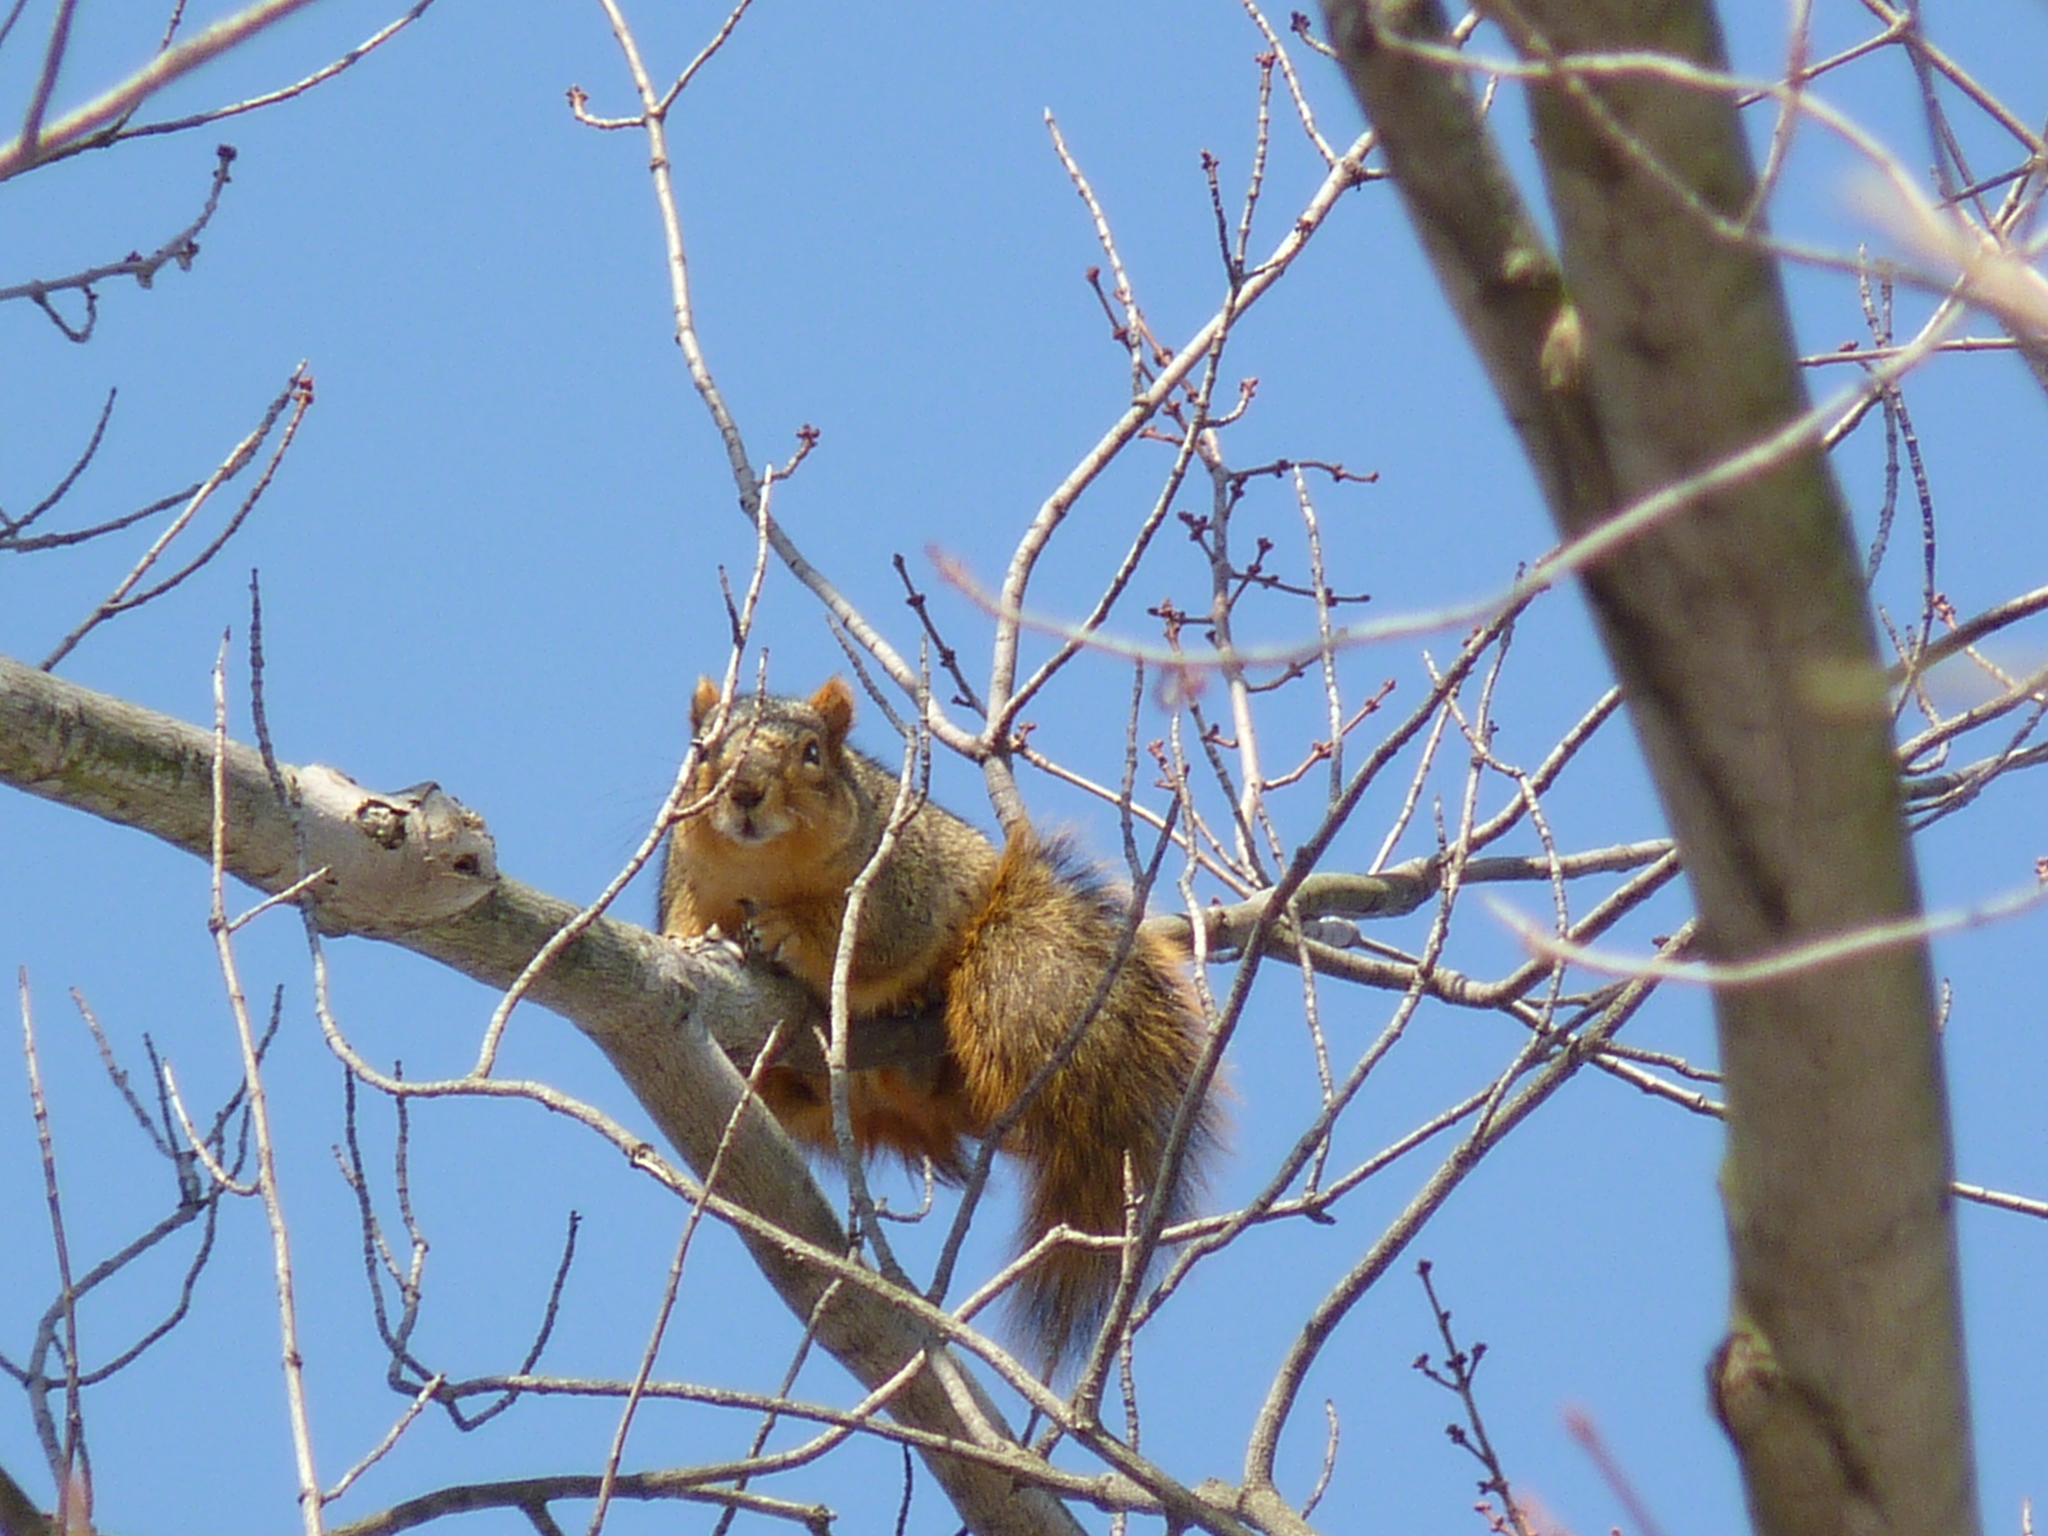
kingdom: Animalia
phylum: Chordata
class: Mammalia
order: Rodentia
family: Sciuridae
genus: Sciurus
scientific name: Sciurus niger
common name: Fox squirrel
